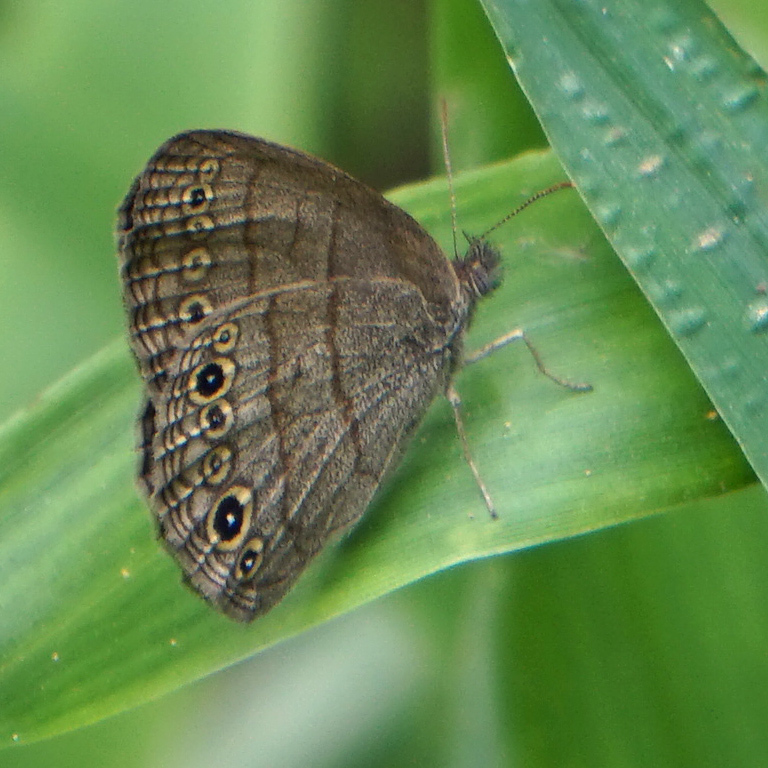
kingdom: Animalia
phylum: Arthropoda
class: Insecta
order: Lepidoptera
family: Nymphalidae
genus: Hermeuptychia
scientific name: Hermeuptychia hermes
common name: Hermes satyr
